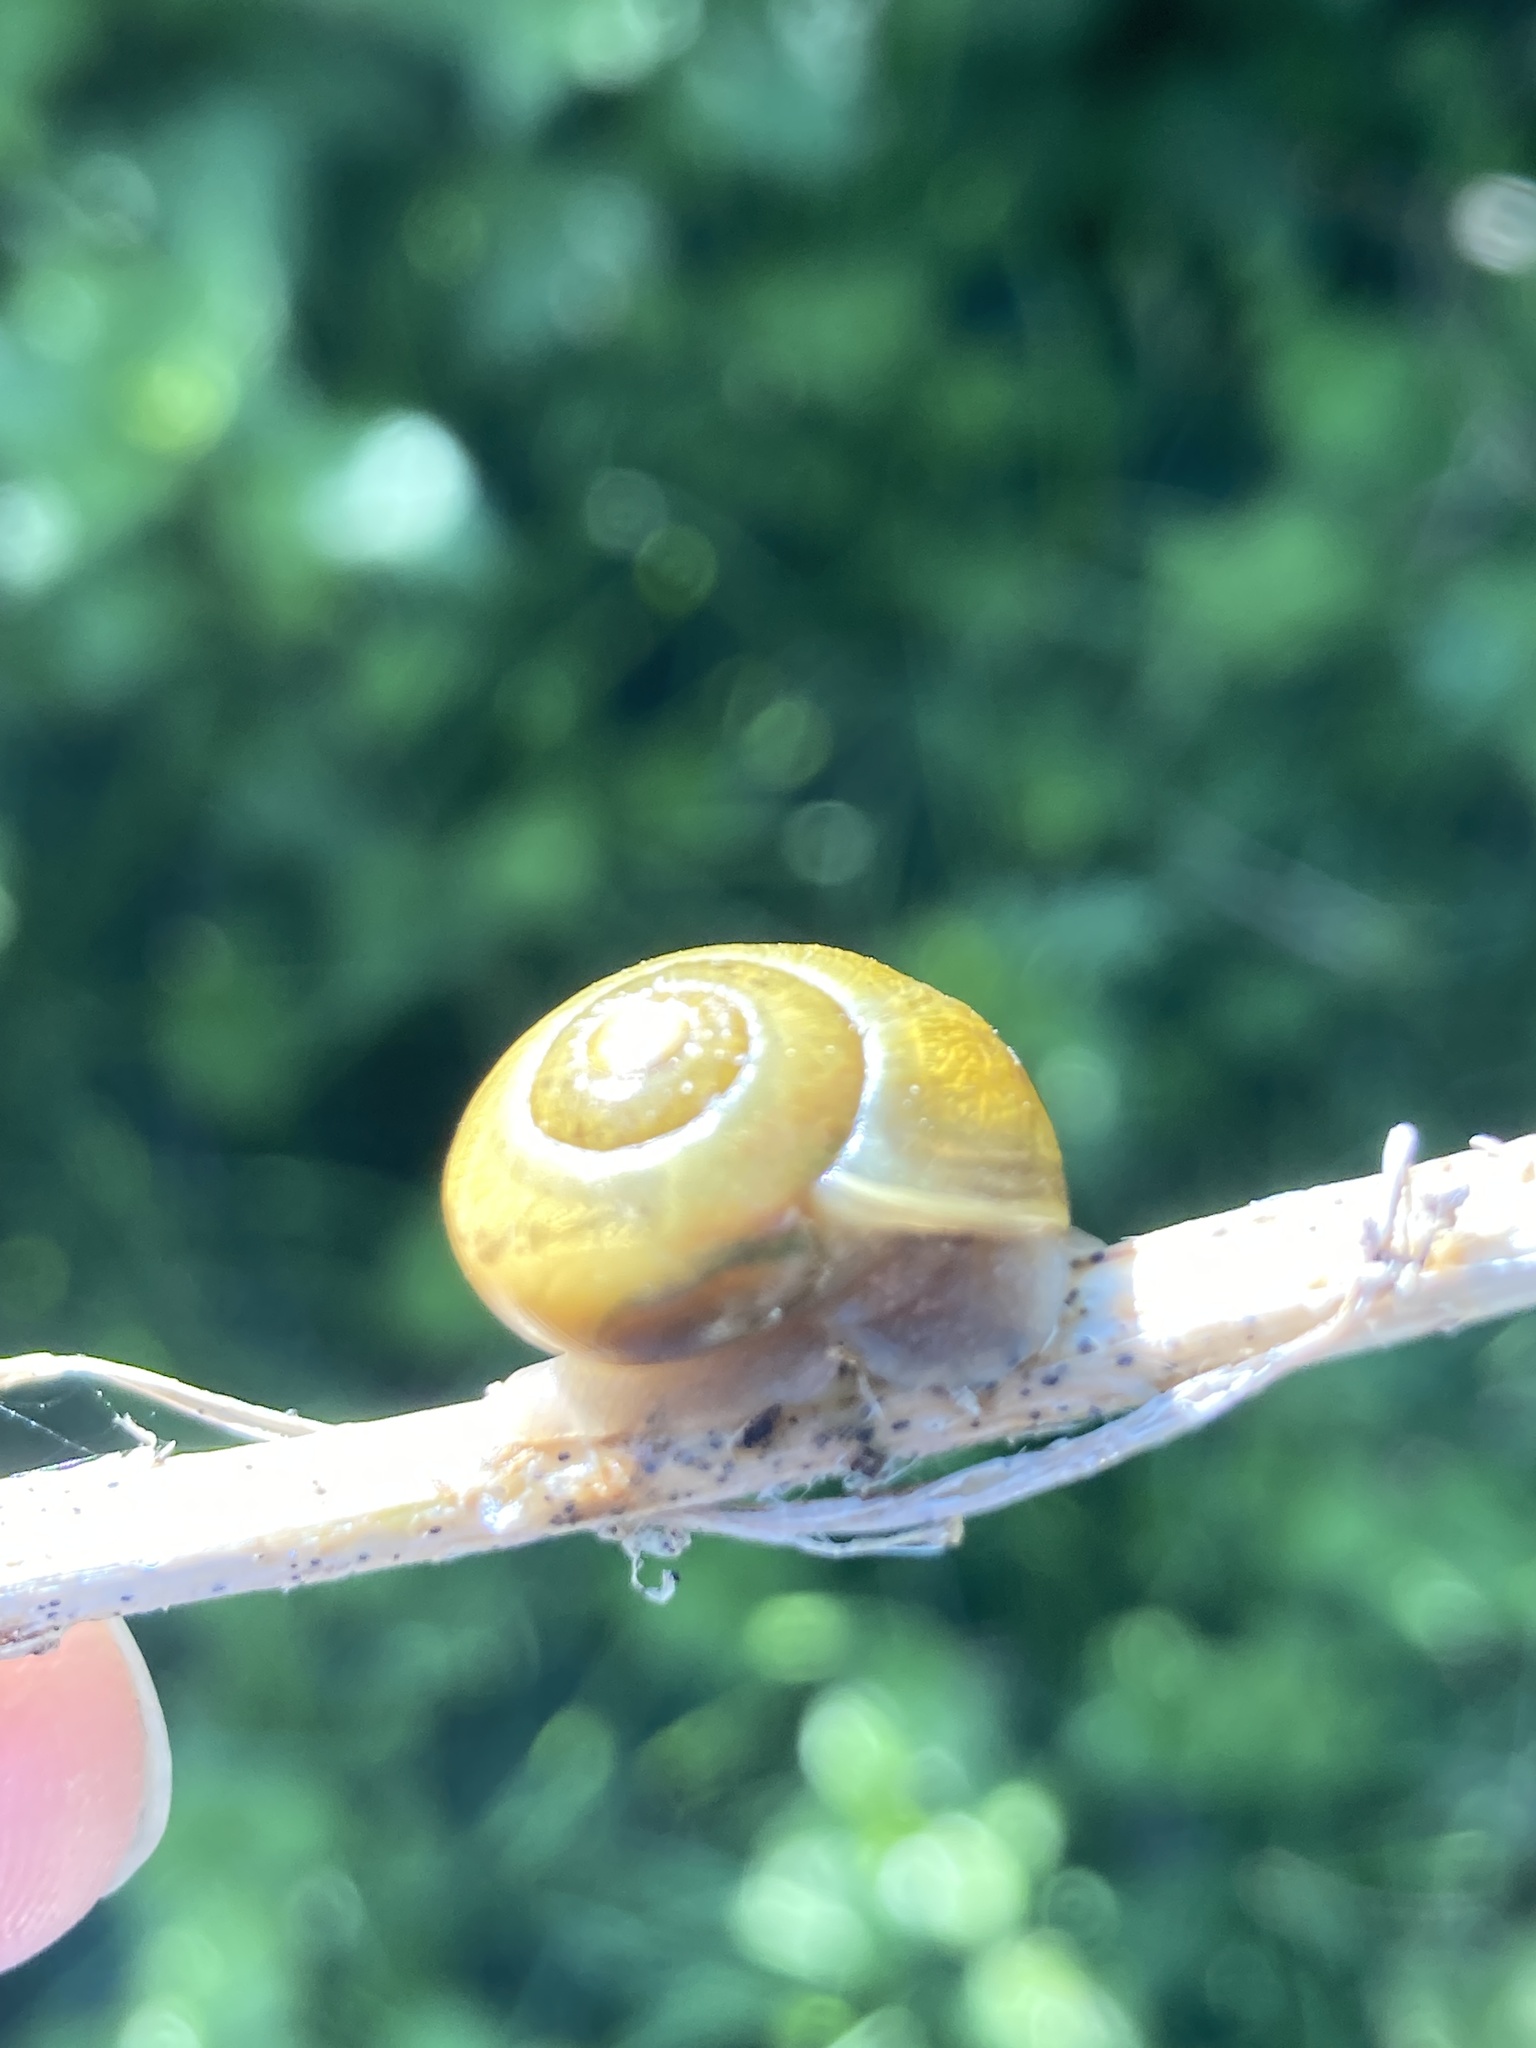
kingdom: Animalia
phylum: Mollusca
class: Gastropoda
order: Stylommatophora
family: Helicidae
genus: Cepaea
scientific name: Cepaea
